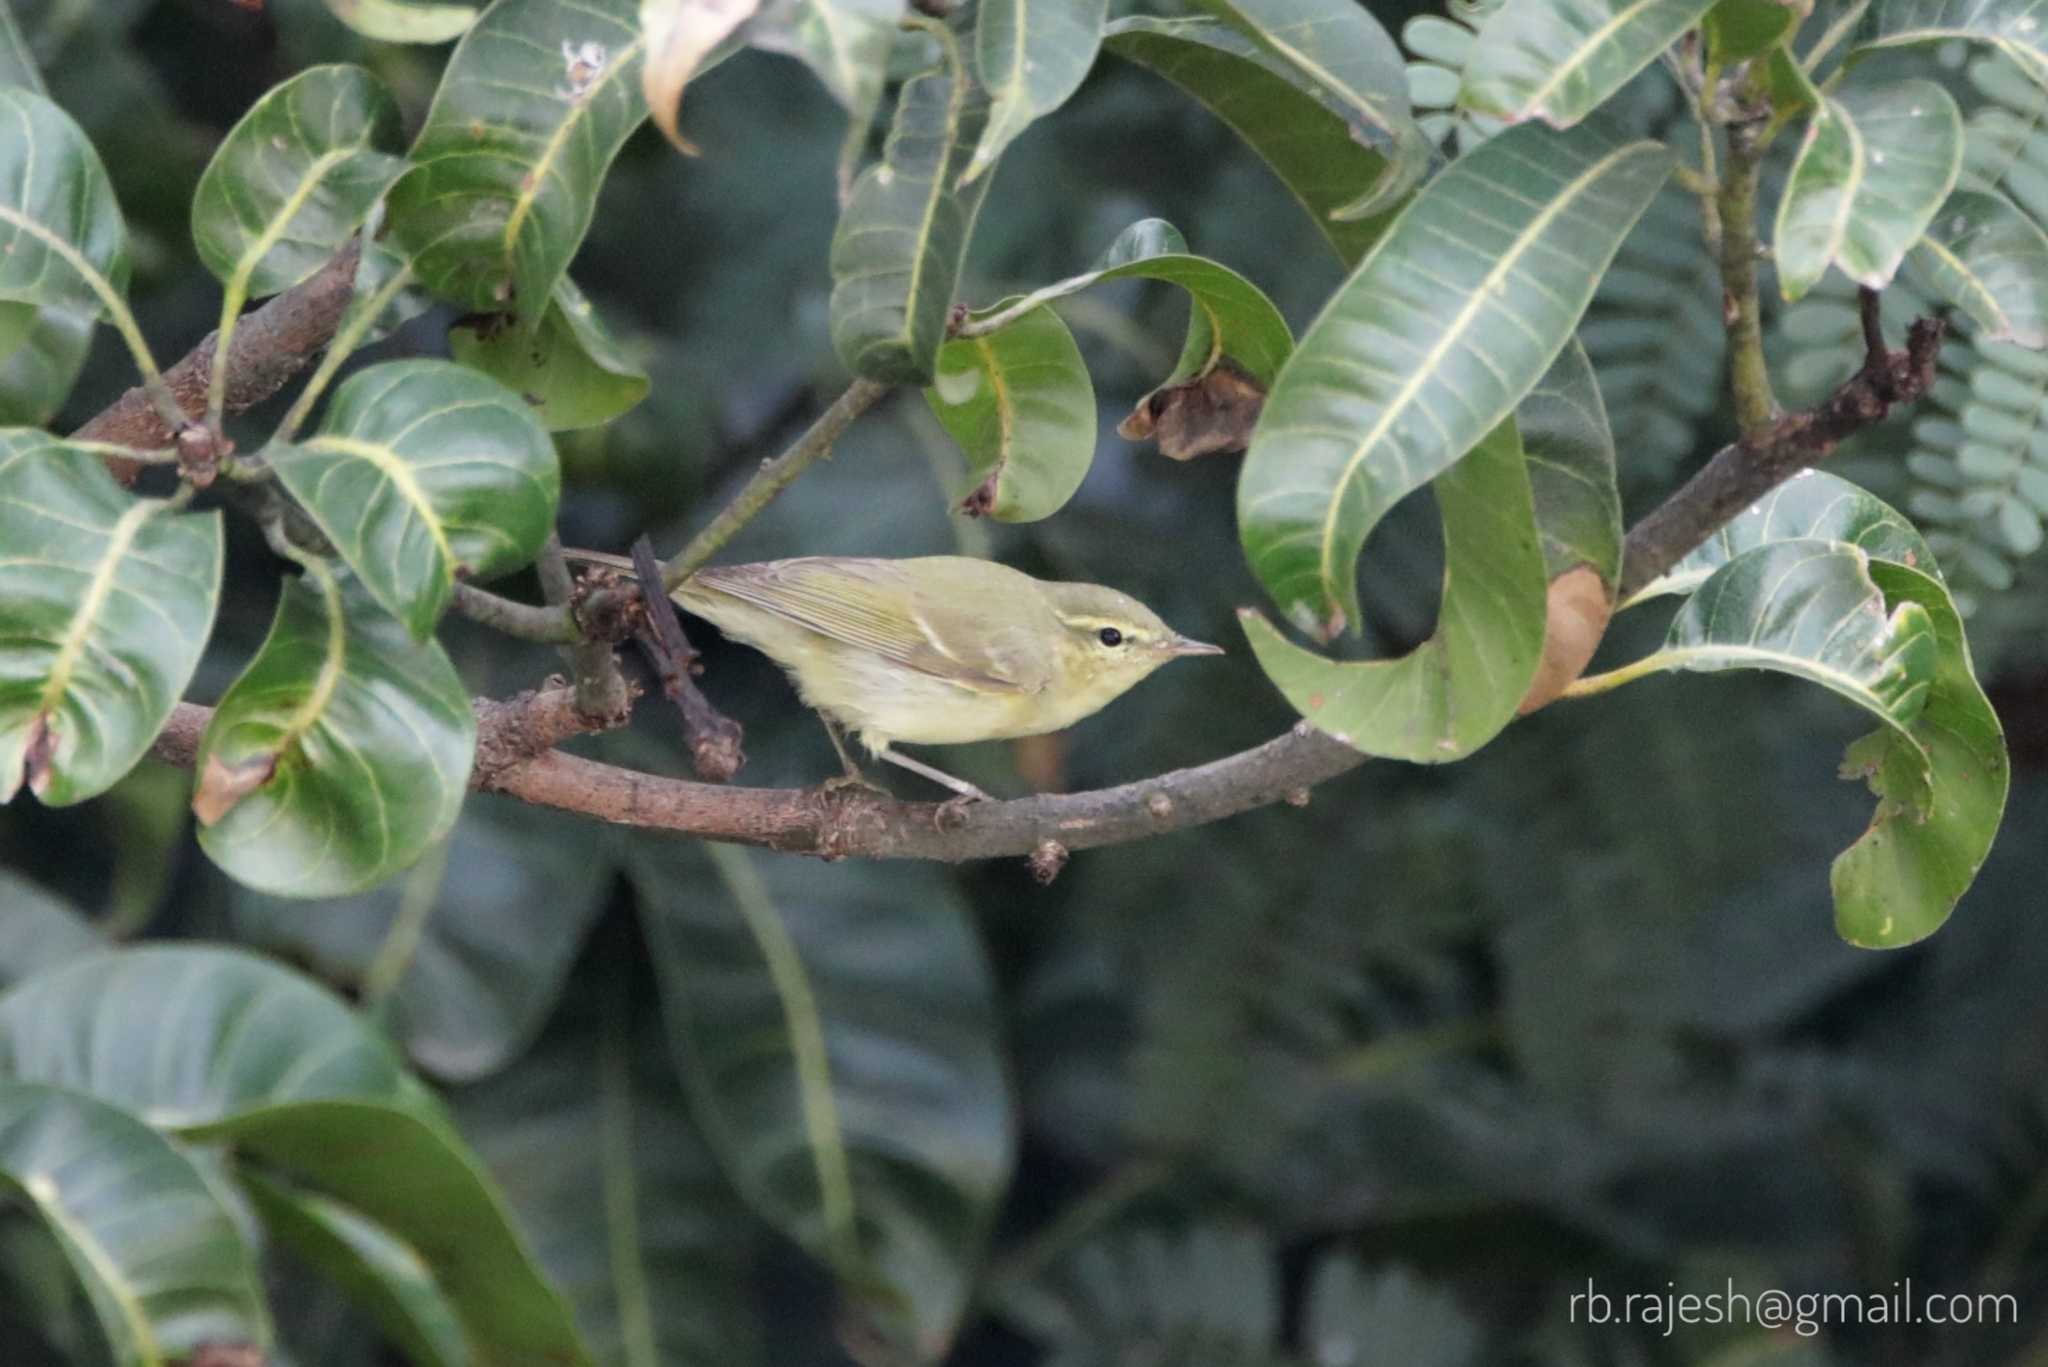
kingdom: Animalia
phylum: Chordata
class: Aves
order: Passeriformes
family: Phylloscopidae
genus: Phylloscopus
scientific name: Phylloscopus trochiloides
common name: Greenish warbler
